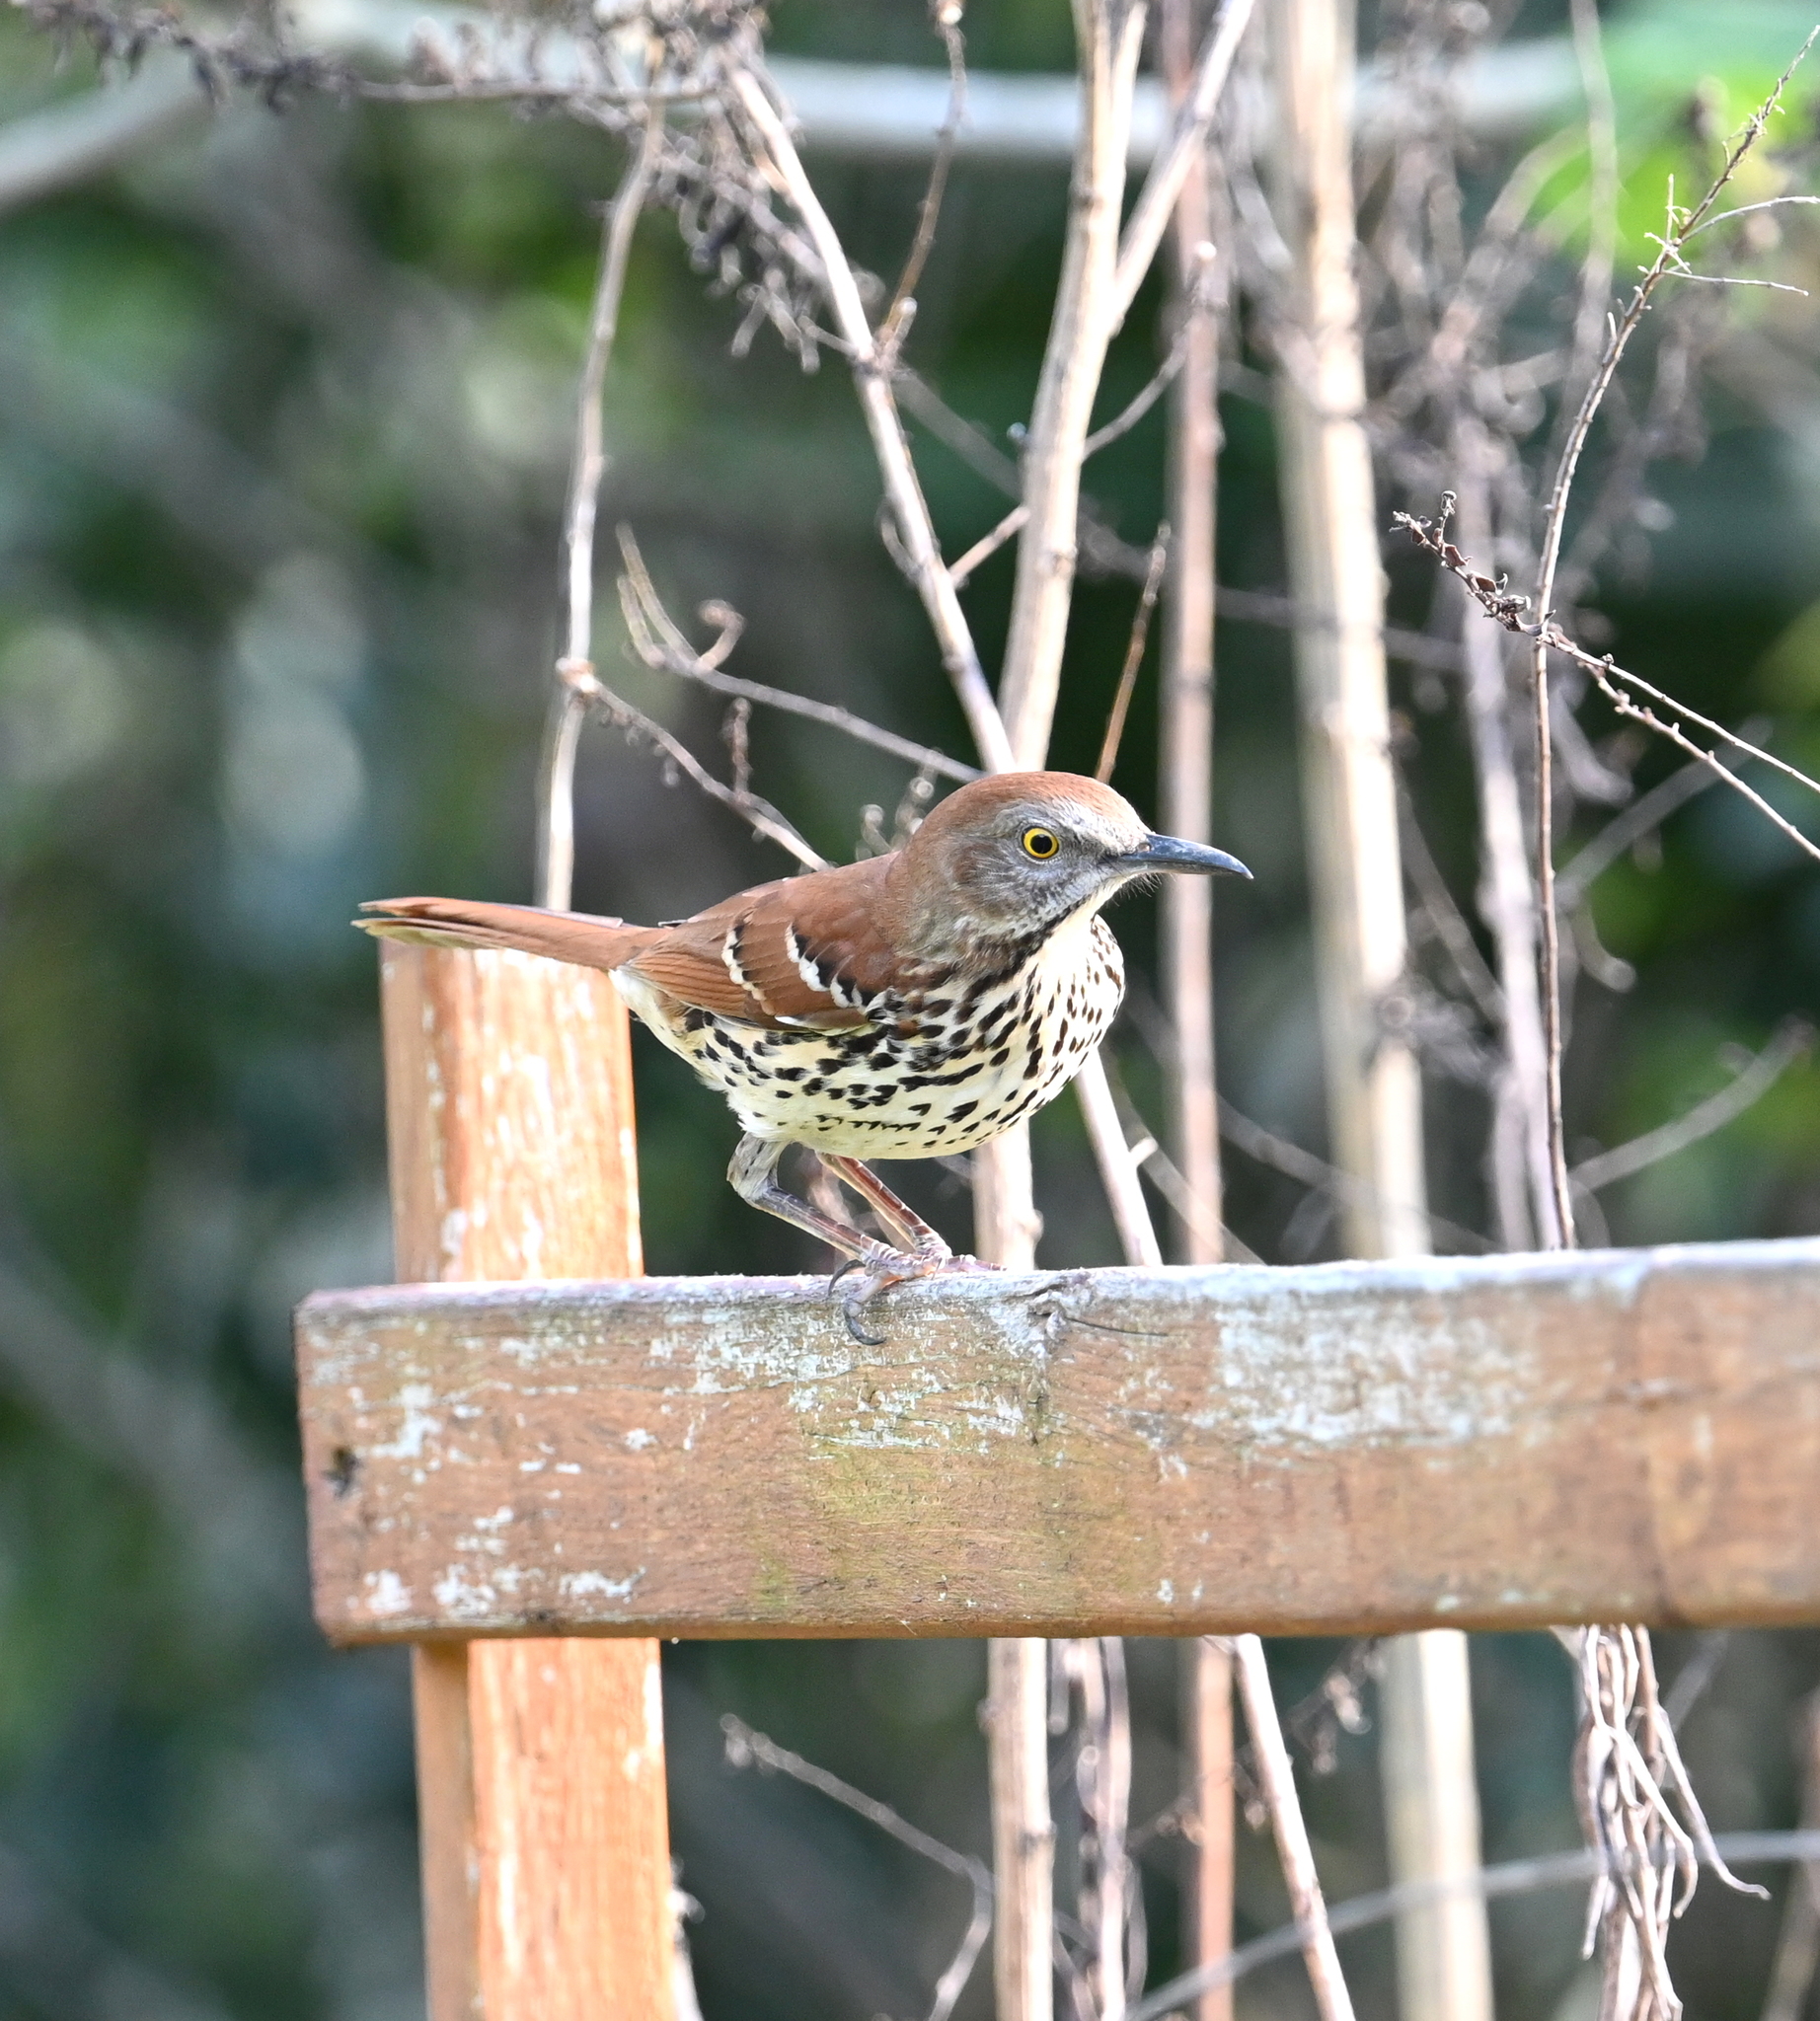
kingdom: Animalia
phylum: Chordata
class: Aves
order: Passeriformes
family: Mimidae
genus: Toxostoma
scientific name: Toxostoma rufum
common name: Brown thrasher
